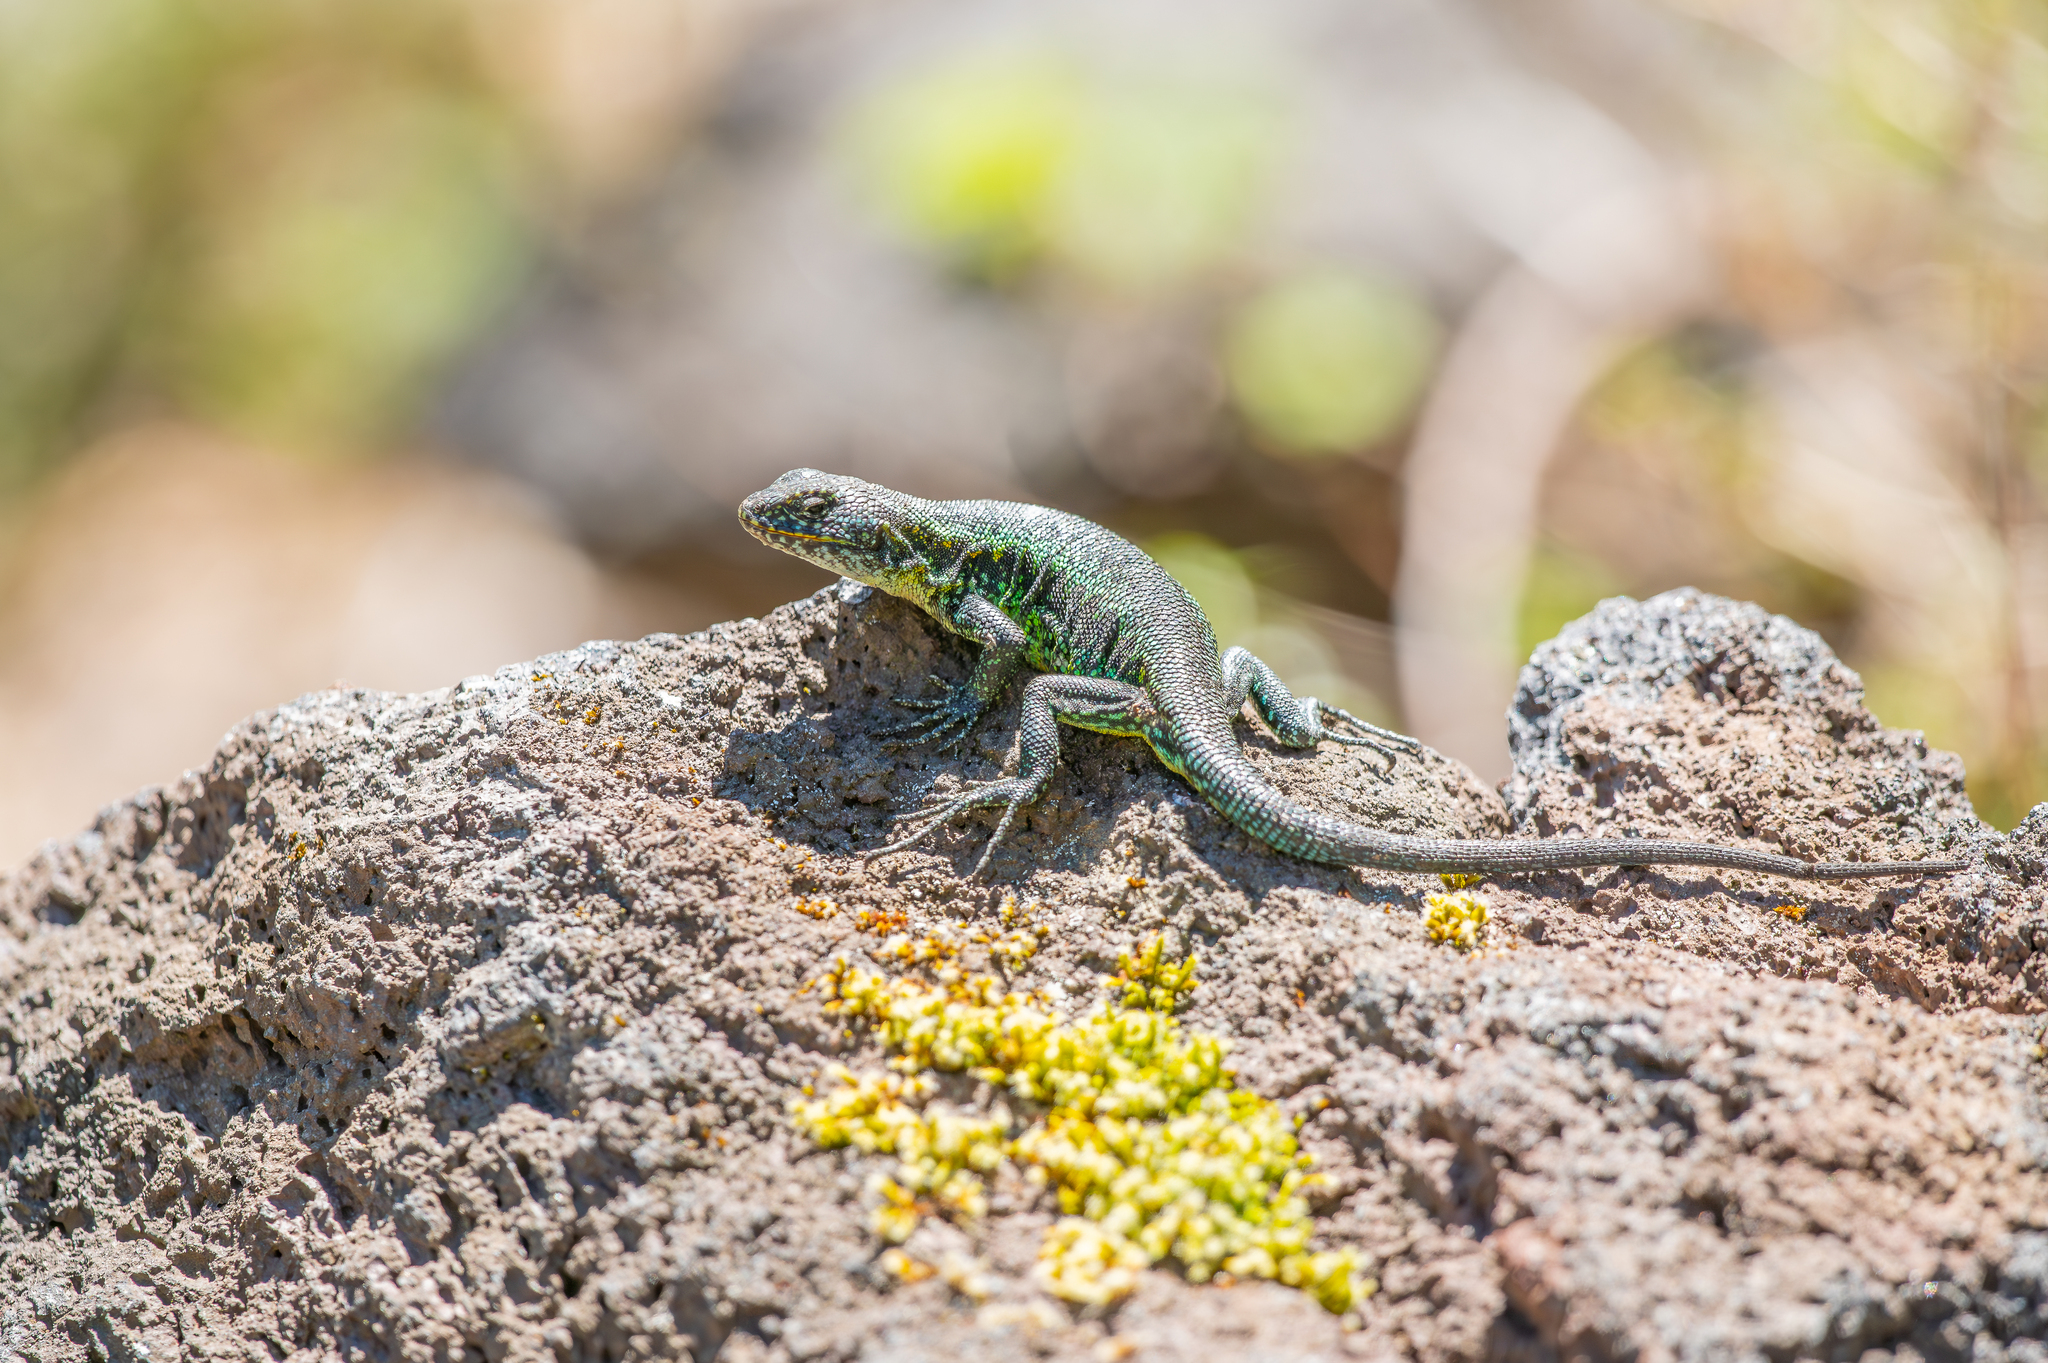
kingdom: Animalia
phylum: Chordata
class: Squamata
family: Liolaemidae
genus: Liolaemus
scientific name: Liolaemus pictus
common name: Painted tree iguana
